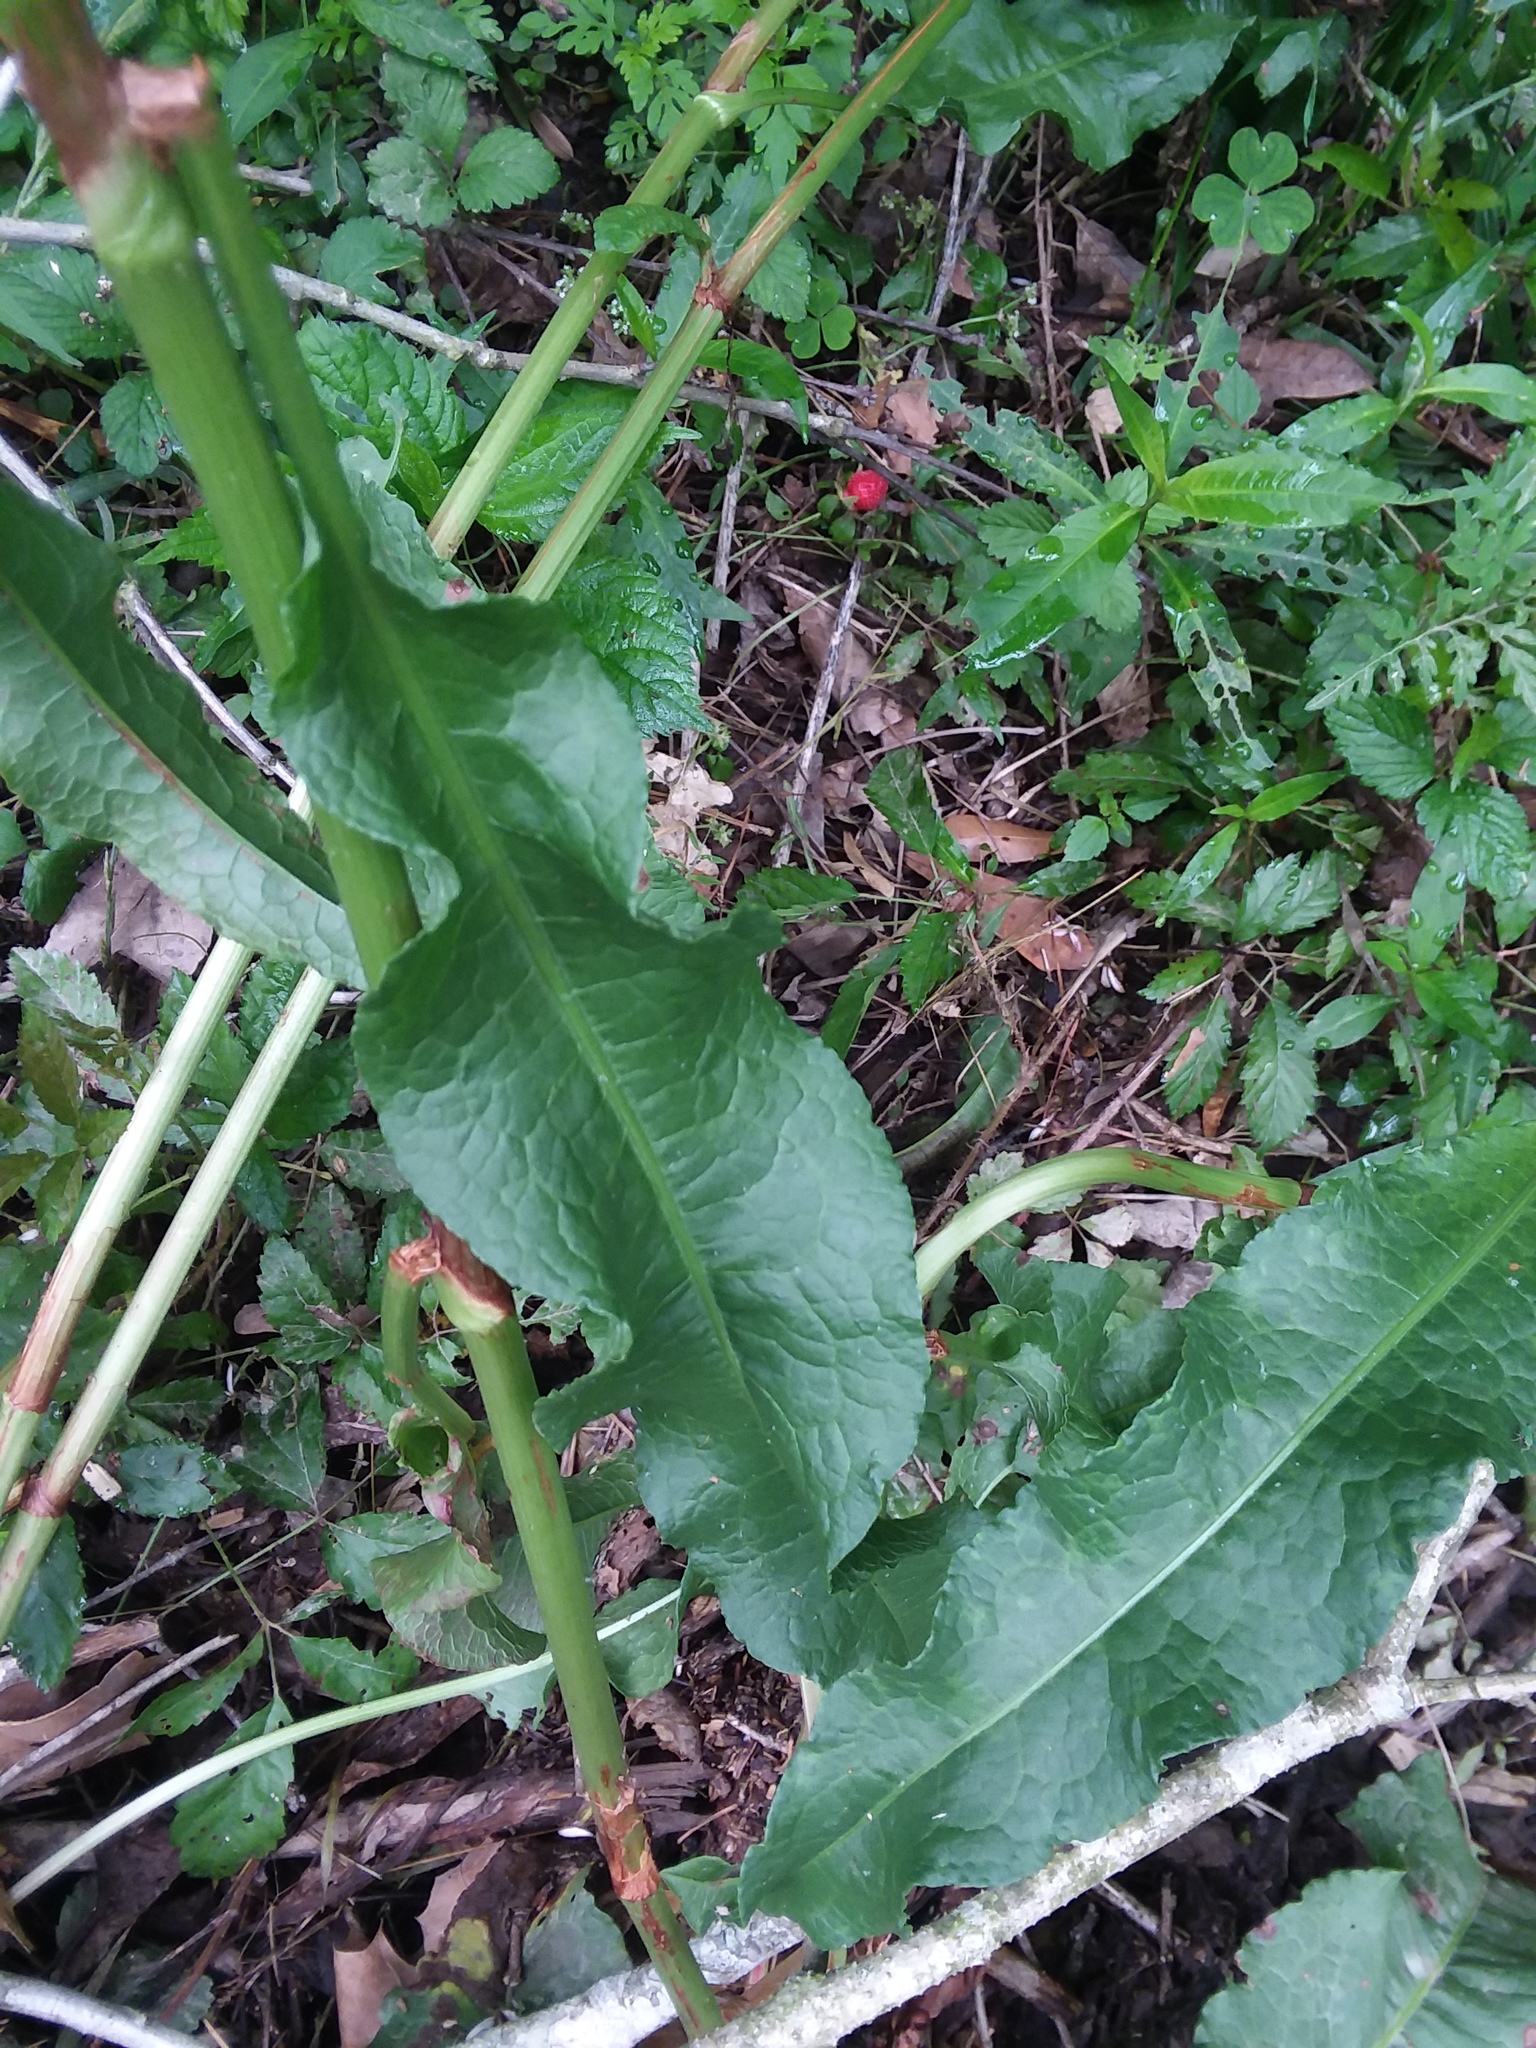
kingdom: Plantae
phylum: Tracheophyta
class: Magnoliopsida
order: Caryophyllales
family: Polygonaceae
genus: Rumex
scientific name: Rumex crispus
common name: Curled dock
